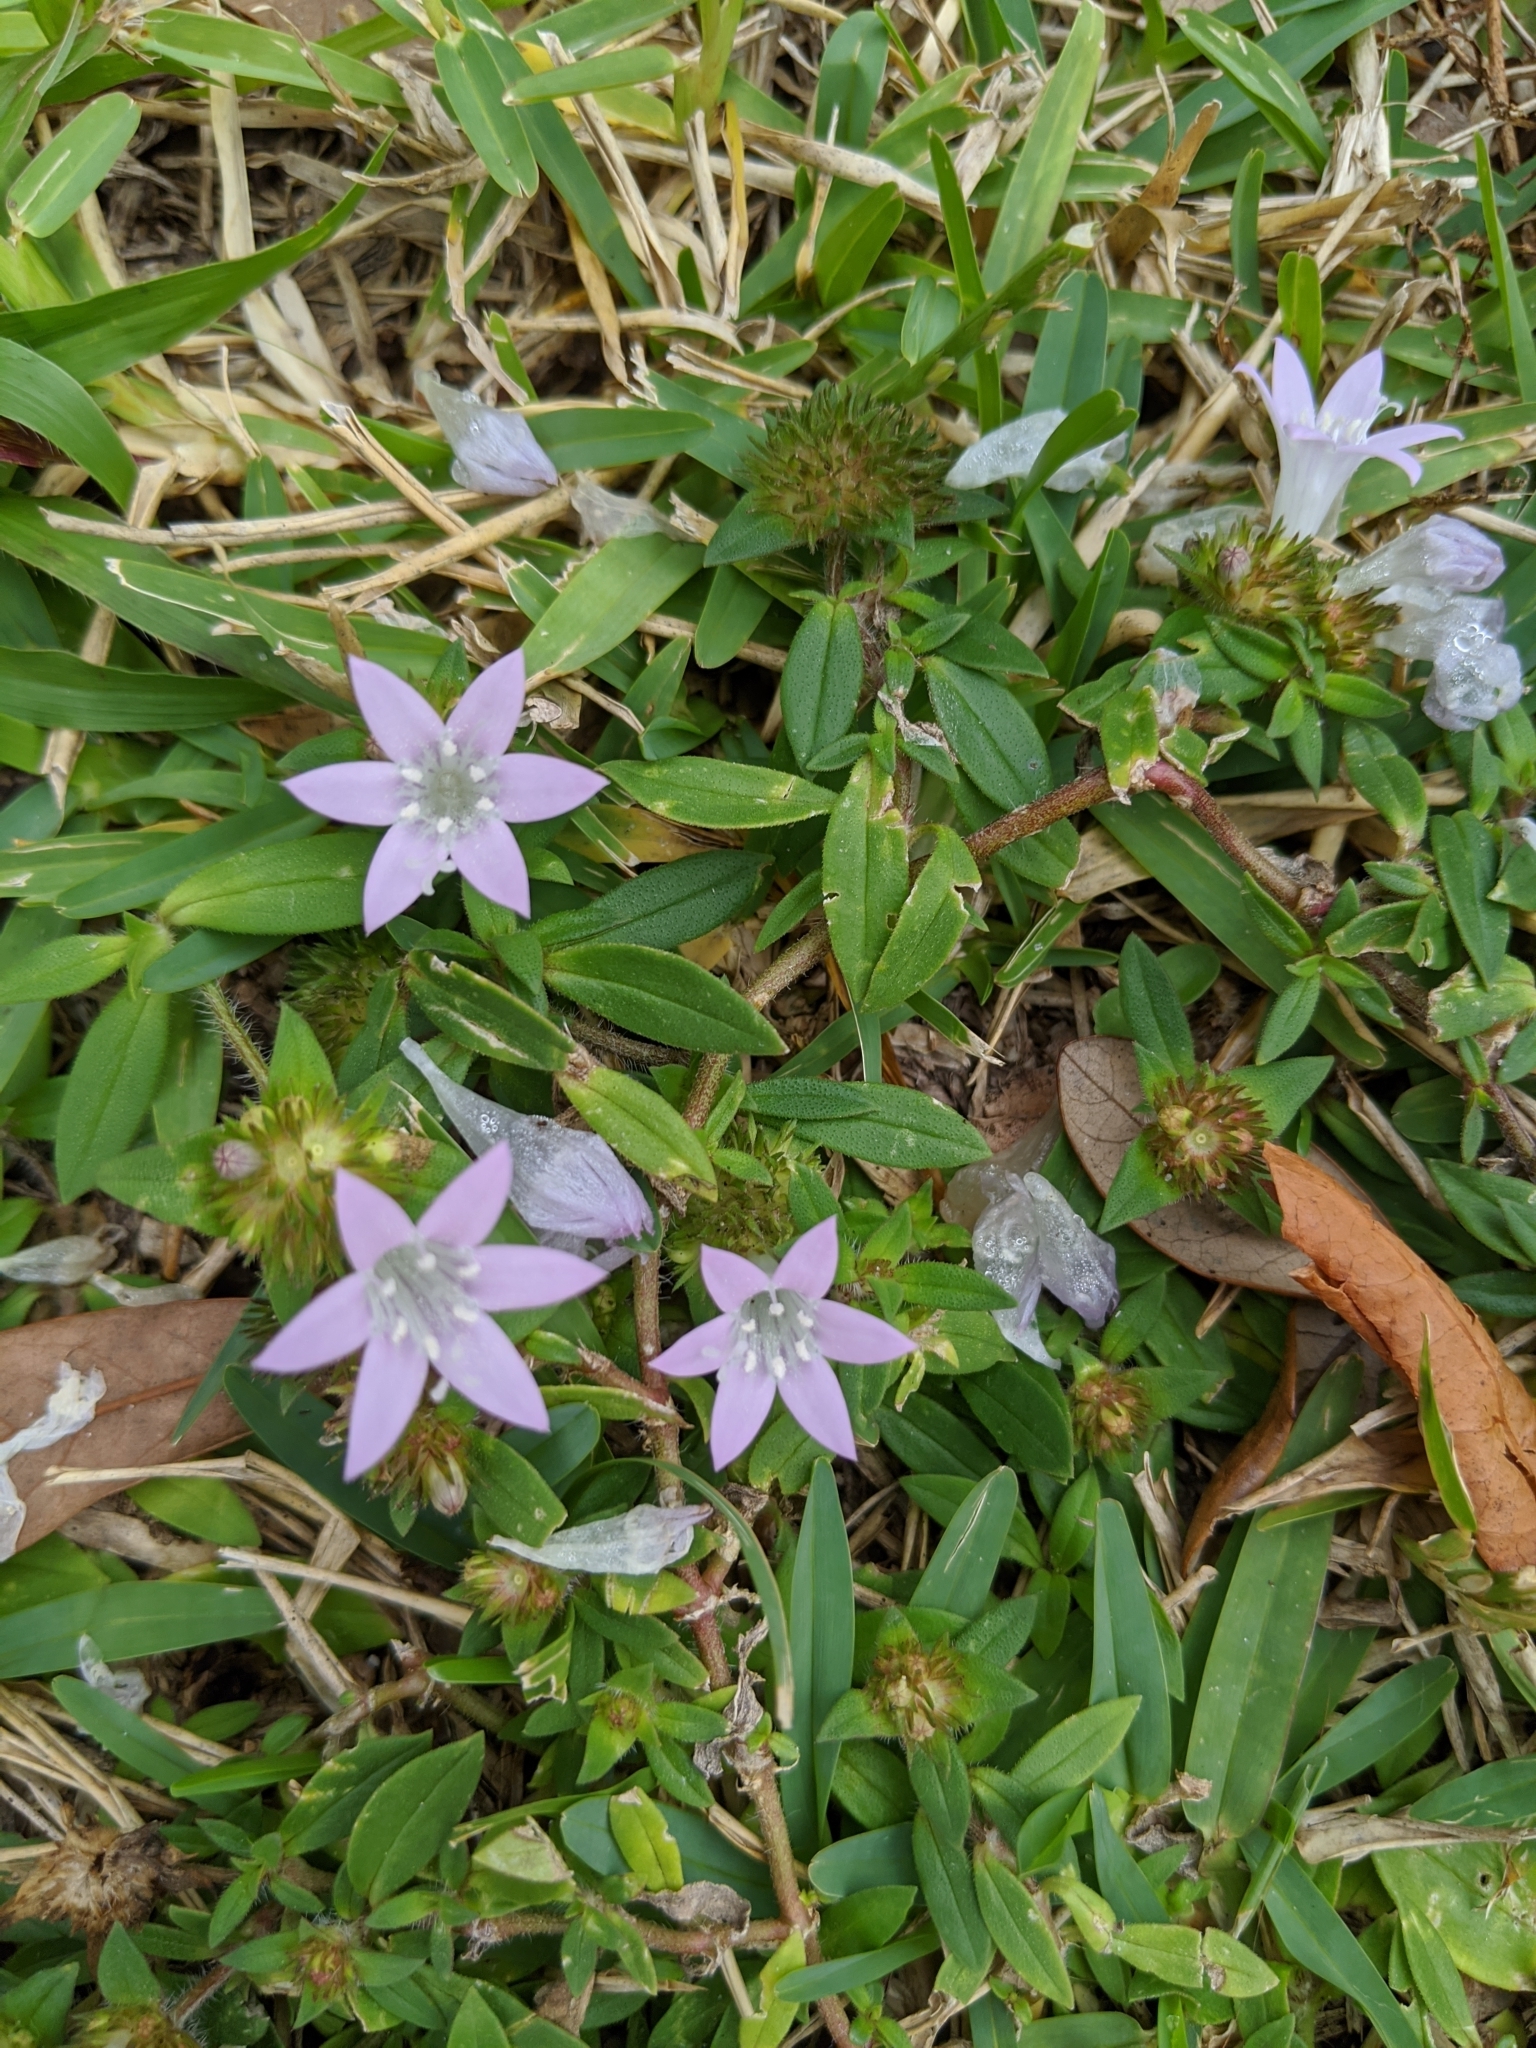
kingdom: Plantae
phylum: Tracheophyta
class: Magnoliopsida
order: Gentianales
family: Rubiaceae
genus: Richardia
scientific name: Richardia grandiflora
